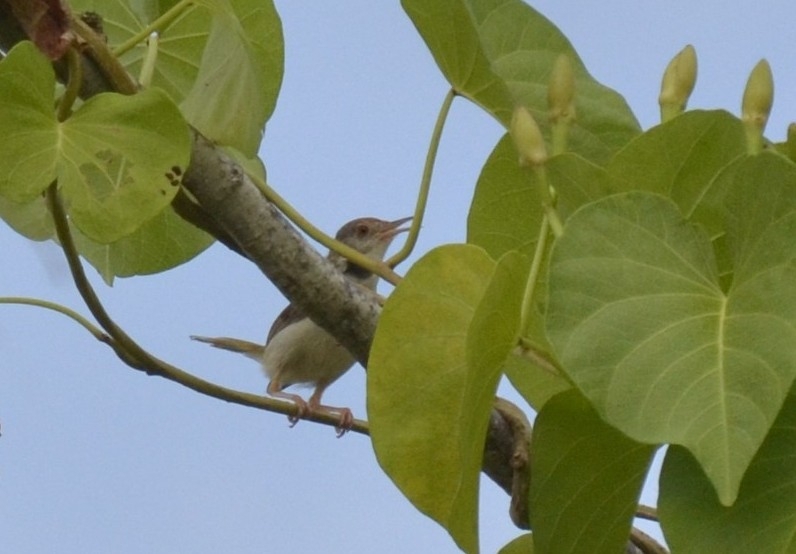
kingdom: Animalia
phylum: Chordata
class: Aves
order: Passeriformes
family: Cisticolidae
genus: Orthotomus
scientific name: Orthotomus sutorius
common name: Common tailorbird
